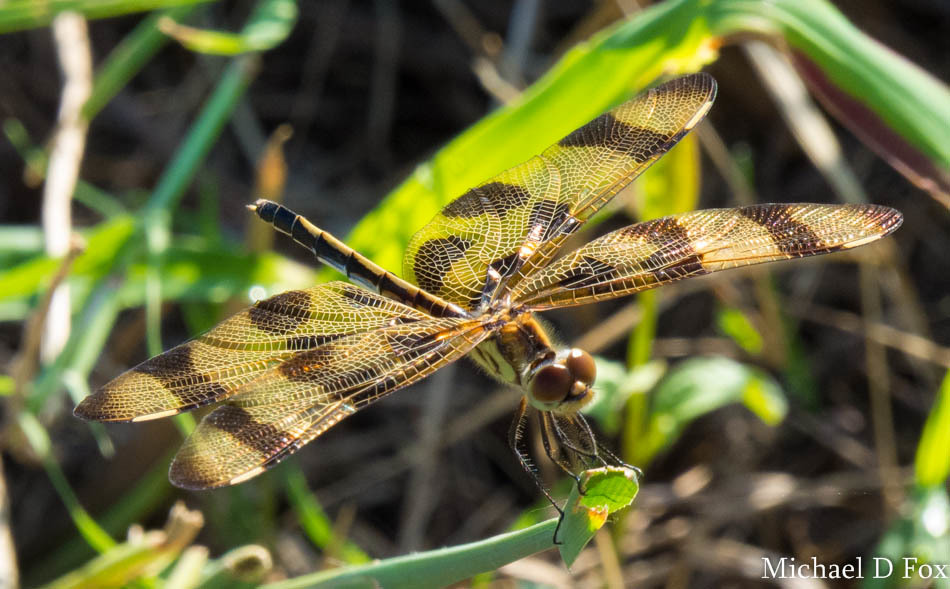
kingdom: Animalia
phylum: Arthropoda
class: Insecta
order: Odonata
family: Libellulidae
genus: Celithemis
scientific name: Celithemis eponina
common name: Halloween pennant
